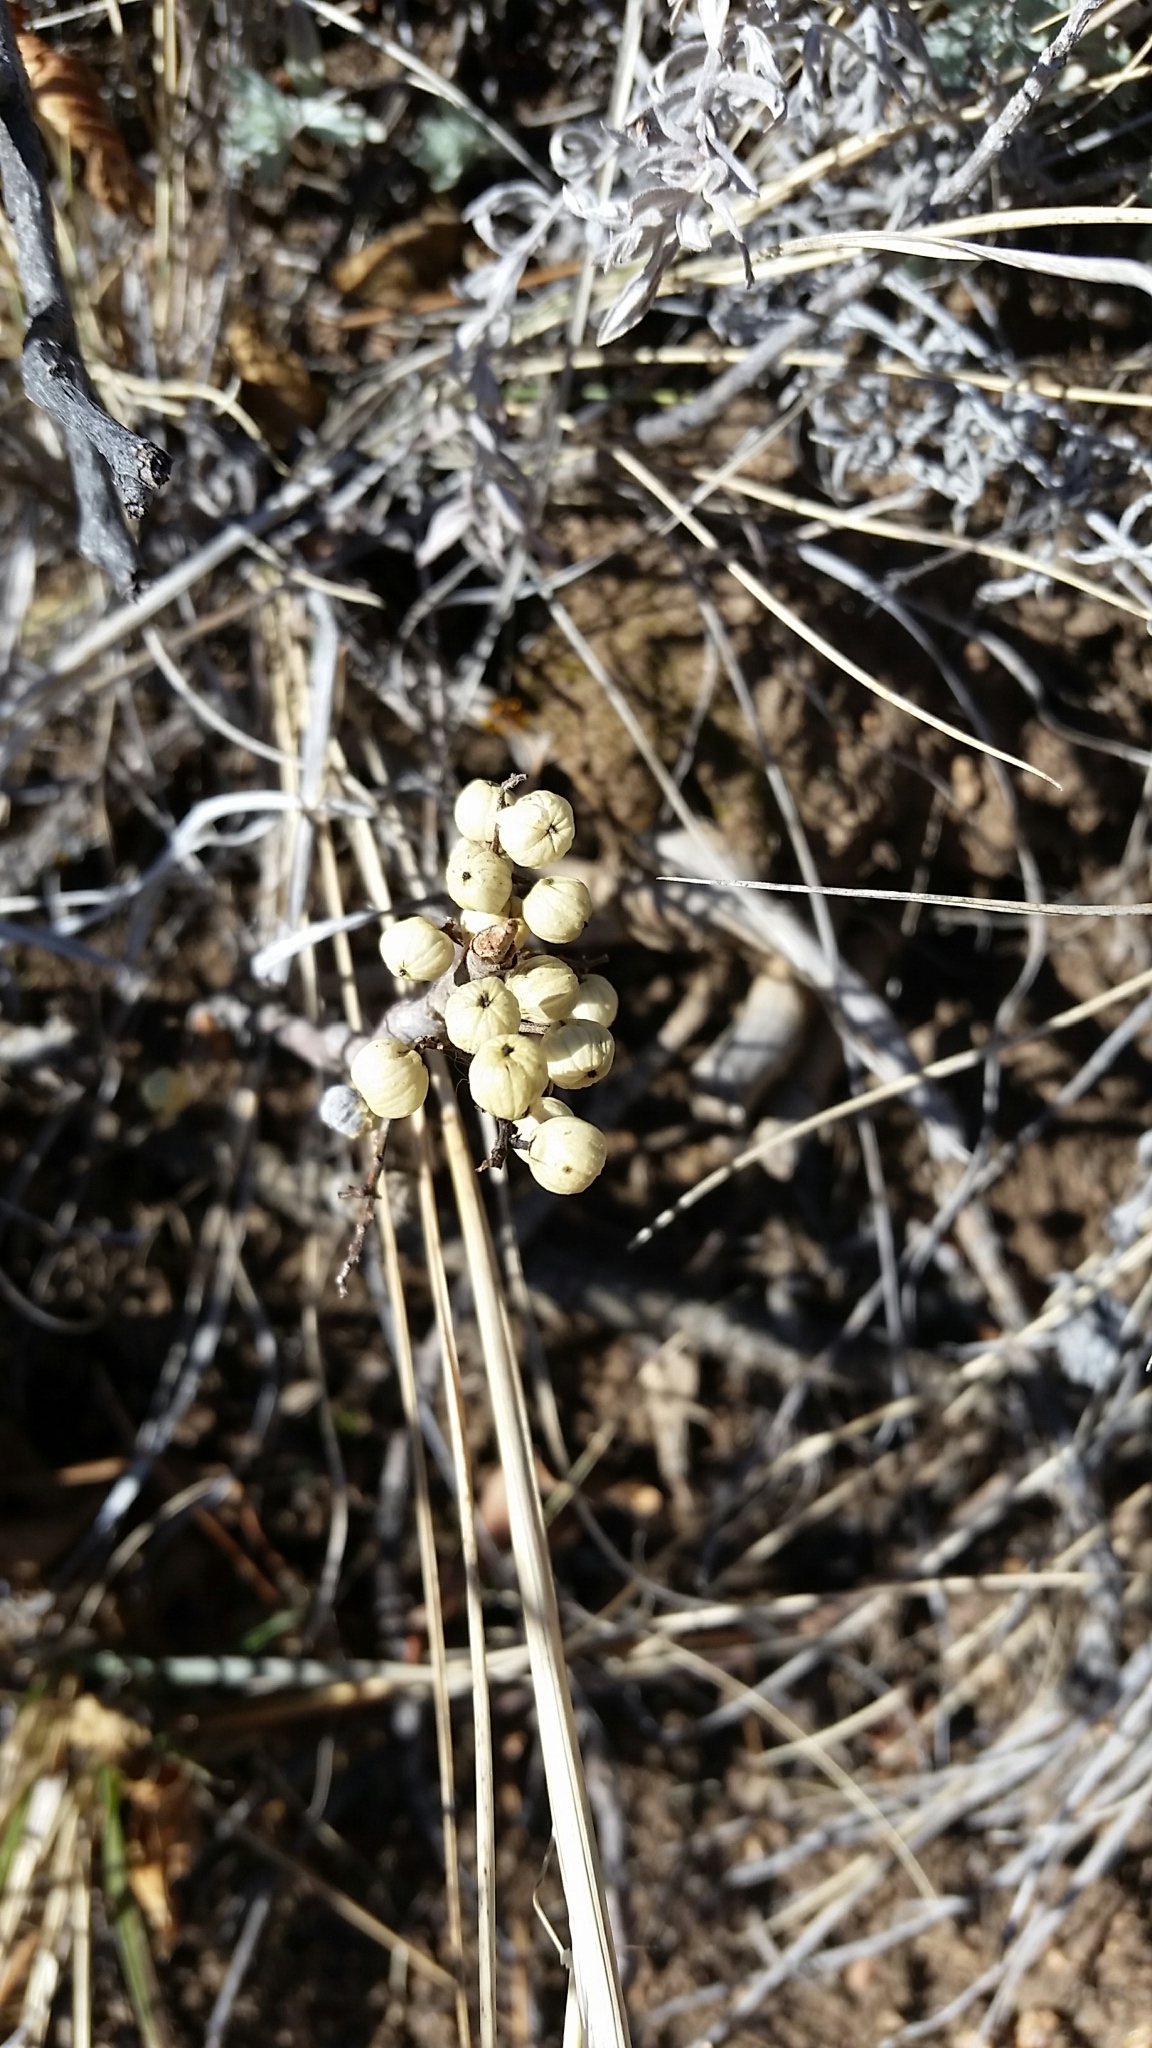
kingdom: Plantae
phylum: Tracheophyta
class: Magnoliopsida
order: Sapindales
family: Anacardiaceae
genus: Toxicodendron
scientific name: Toxicodendron rydbergii
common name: Rydberg's poison-ivy
